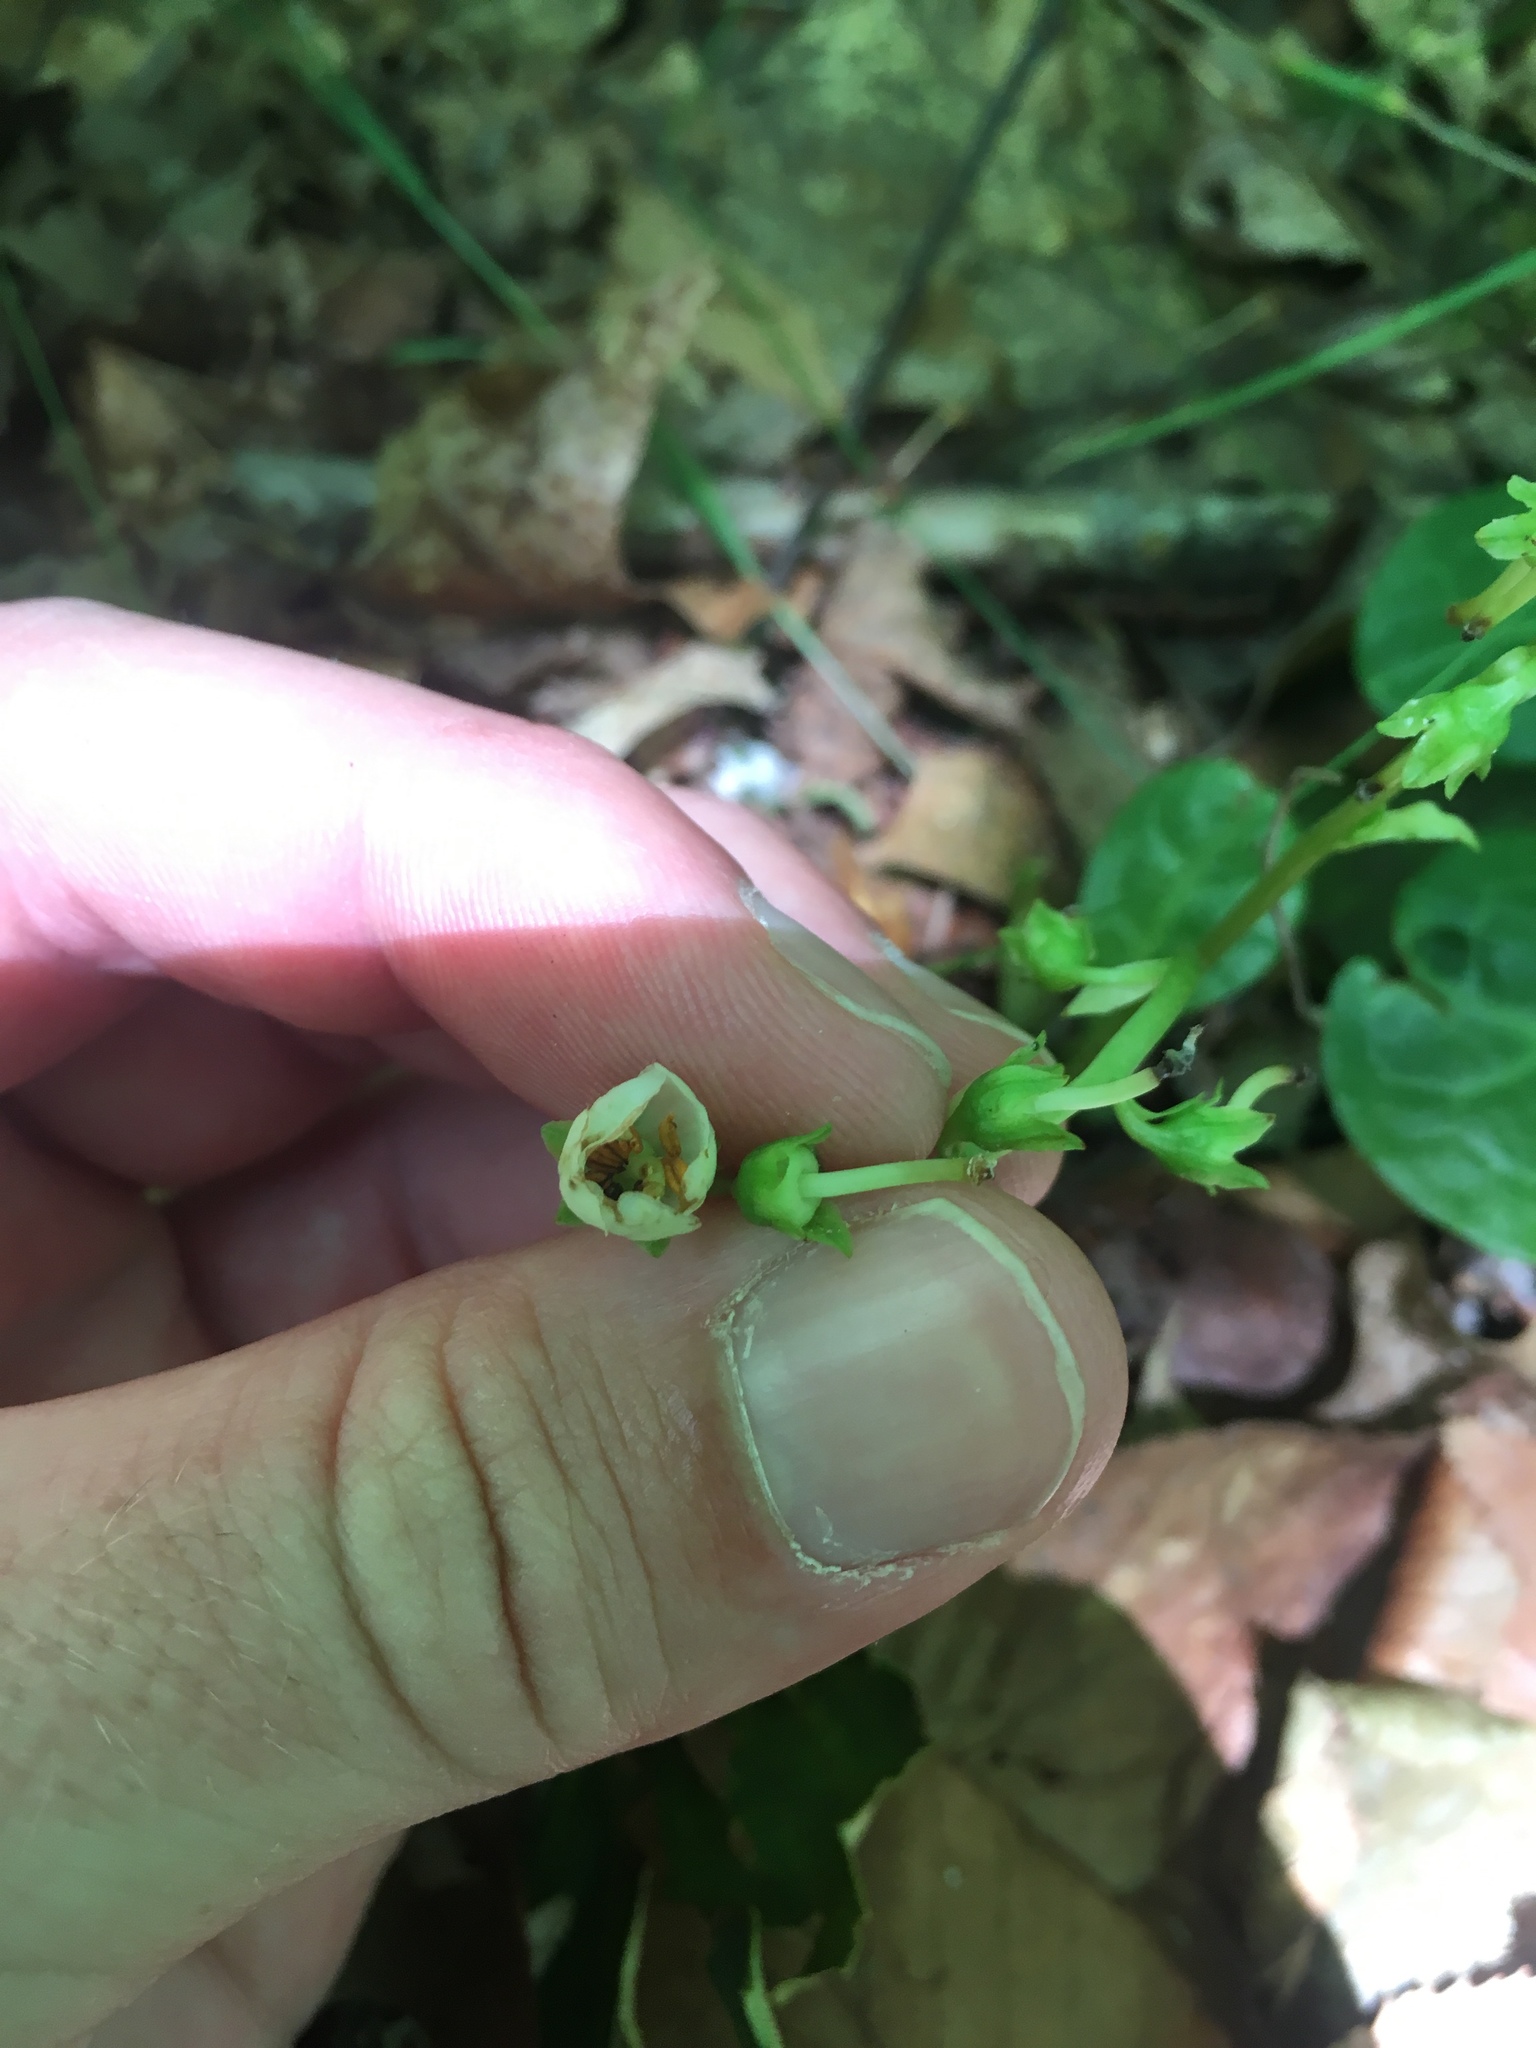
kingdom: Plantae
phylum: Tracheophyta
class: Magnoliopsida
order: Ericales
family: Ericaceae
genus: Pyrola
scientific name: Pyrola americana
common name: American wintergreen
